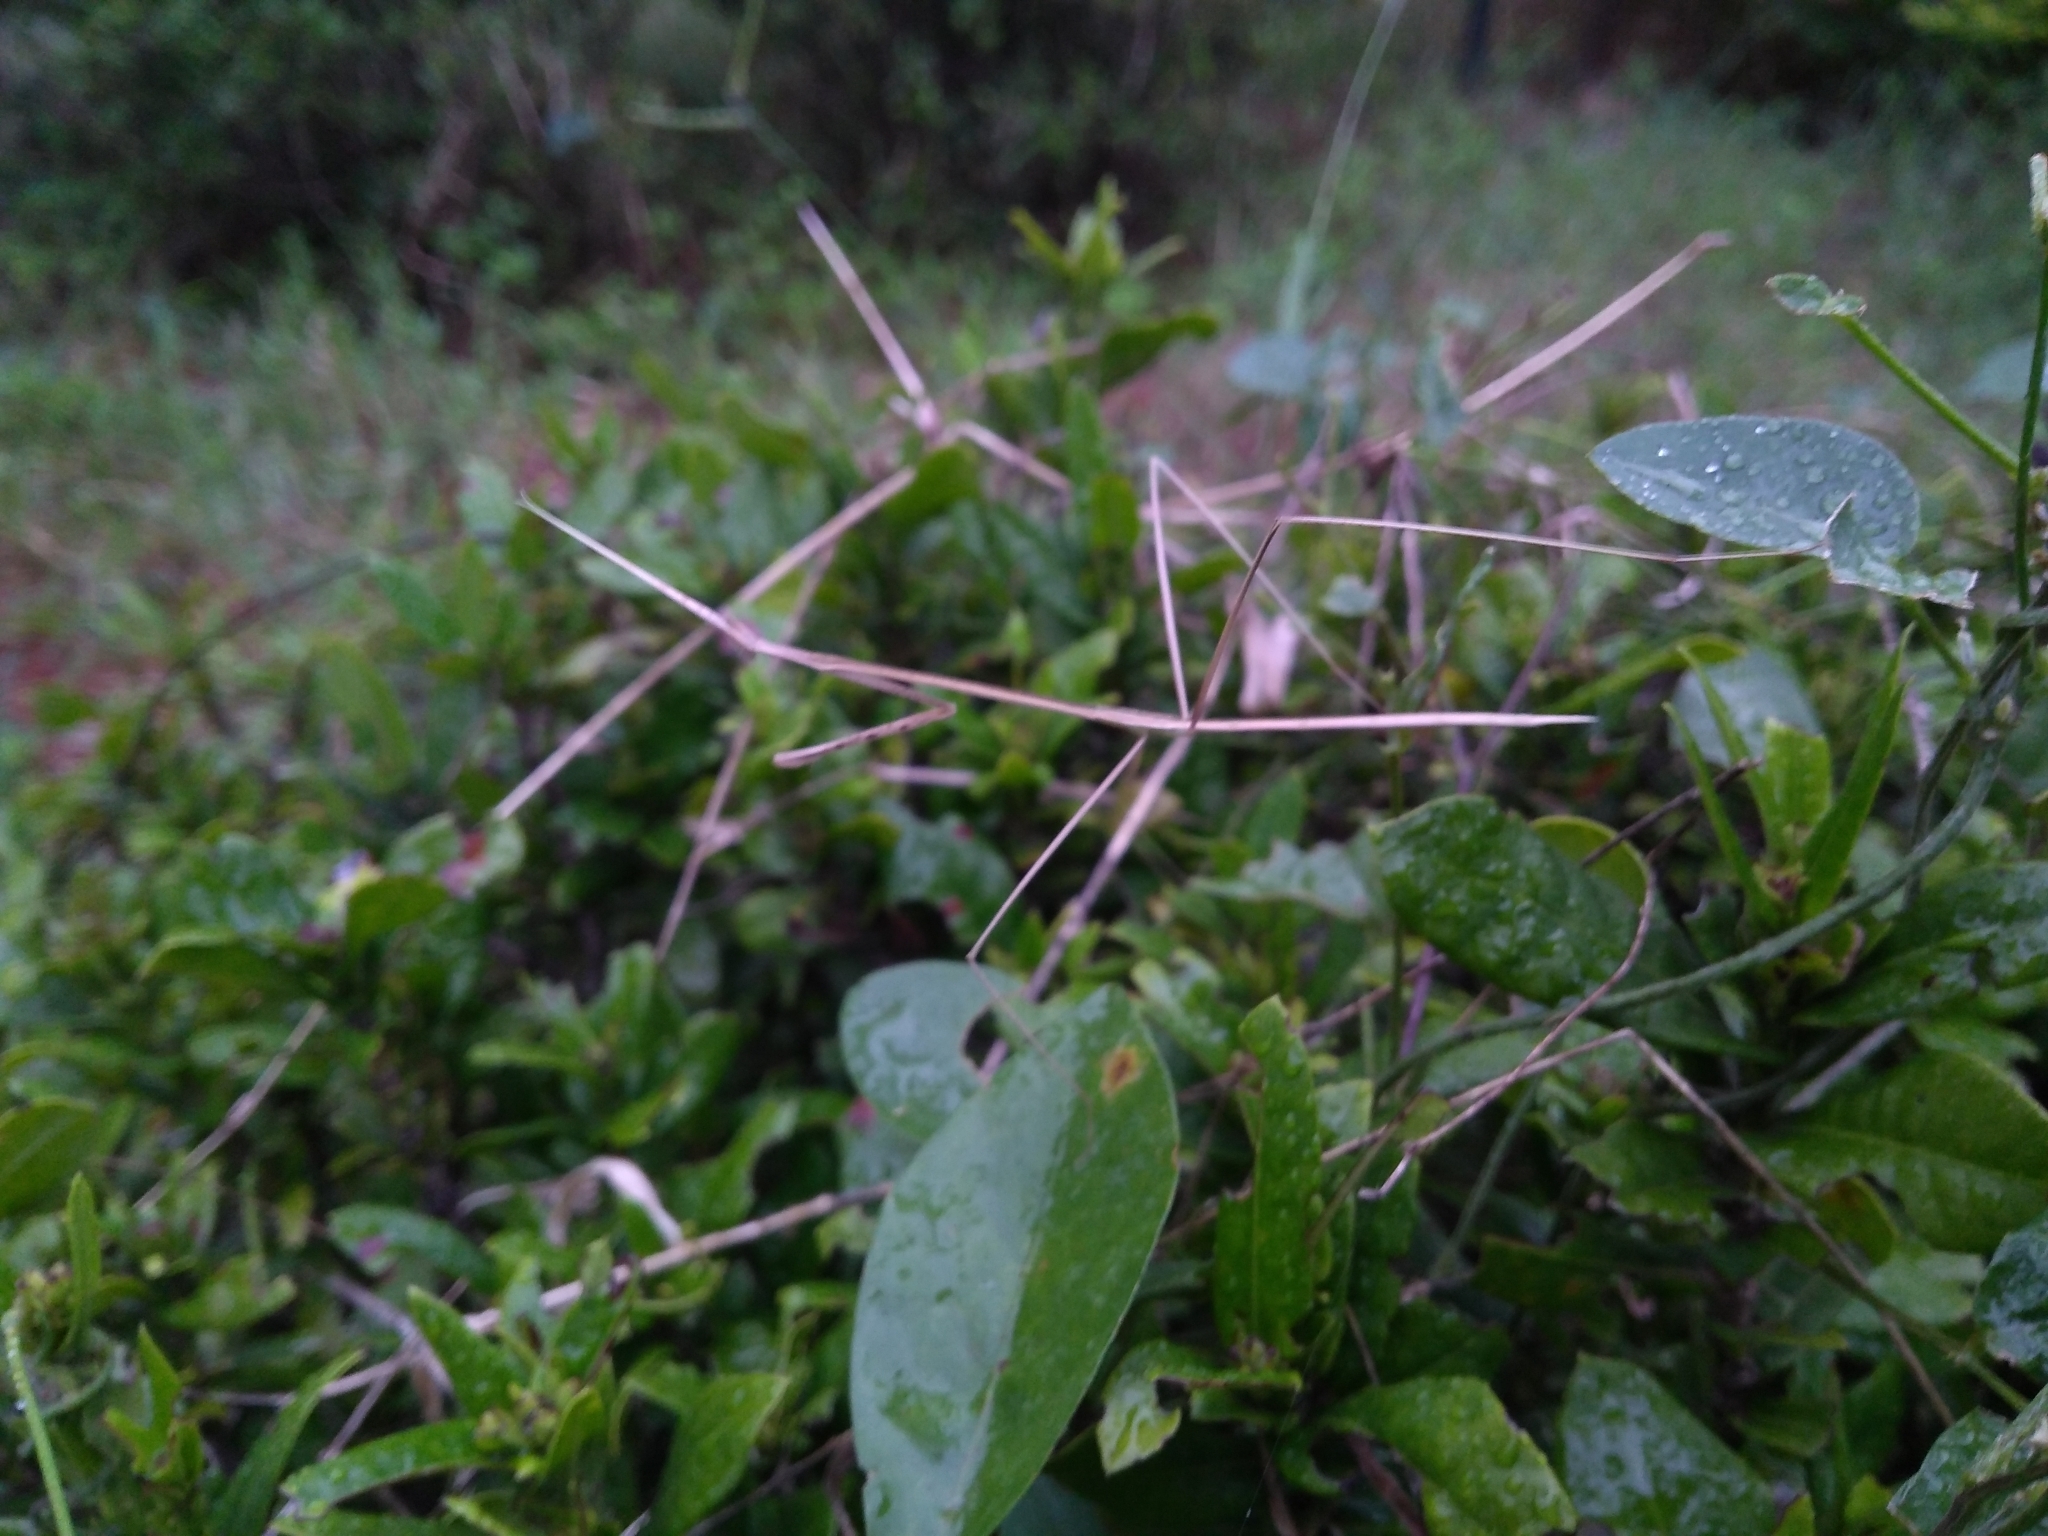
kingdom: Animalia
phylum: Arthropoda
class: Insecta
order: Mantodea
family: Eremiaphilidae
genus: Schizocephala
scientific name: Schizocephala bicornis
